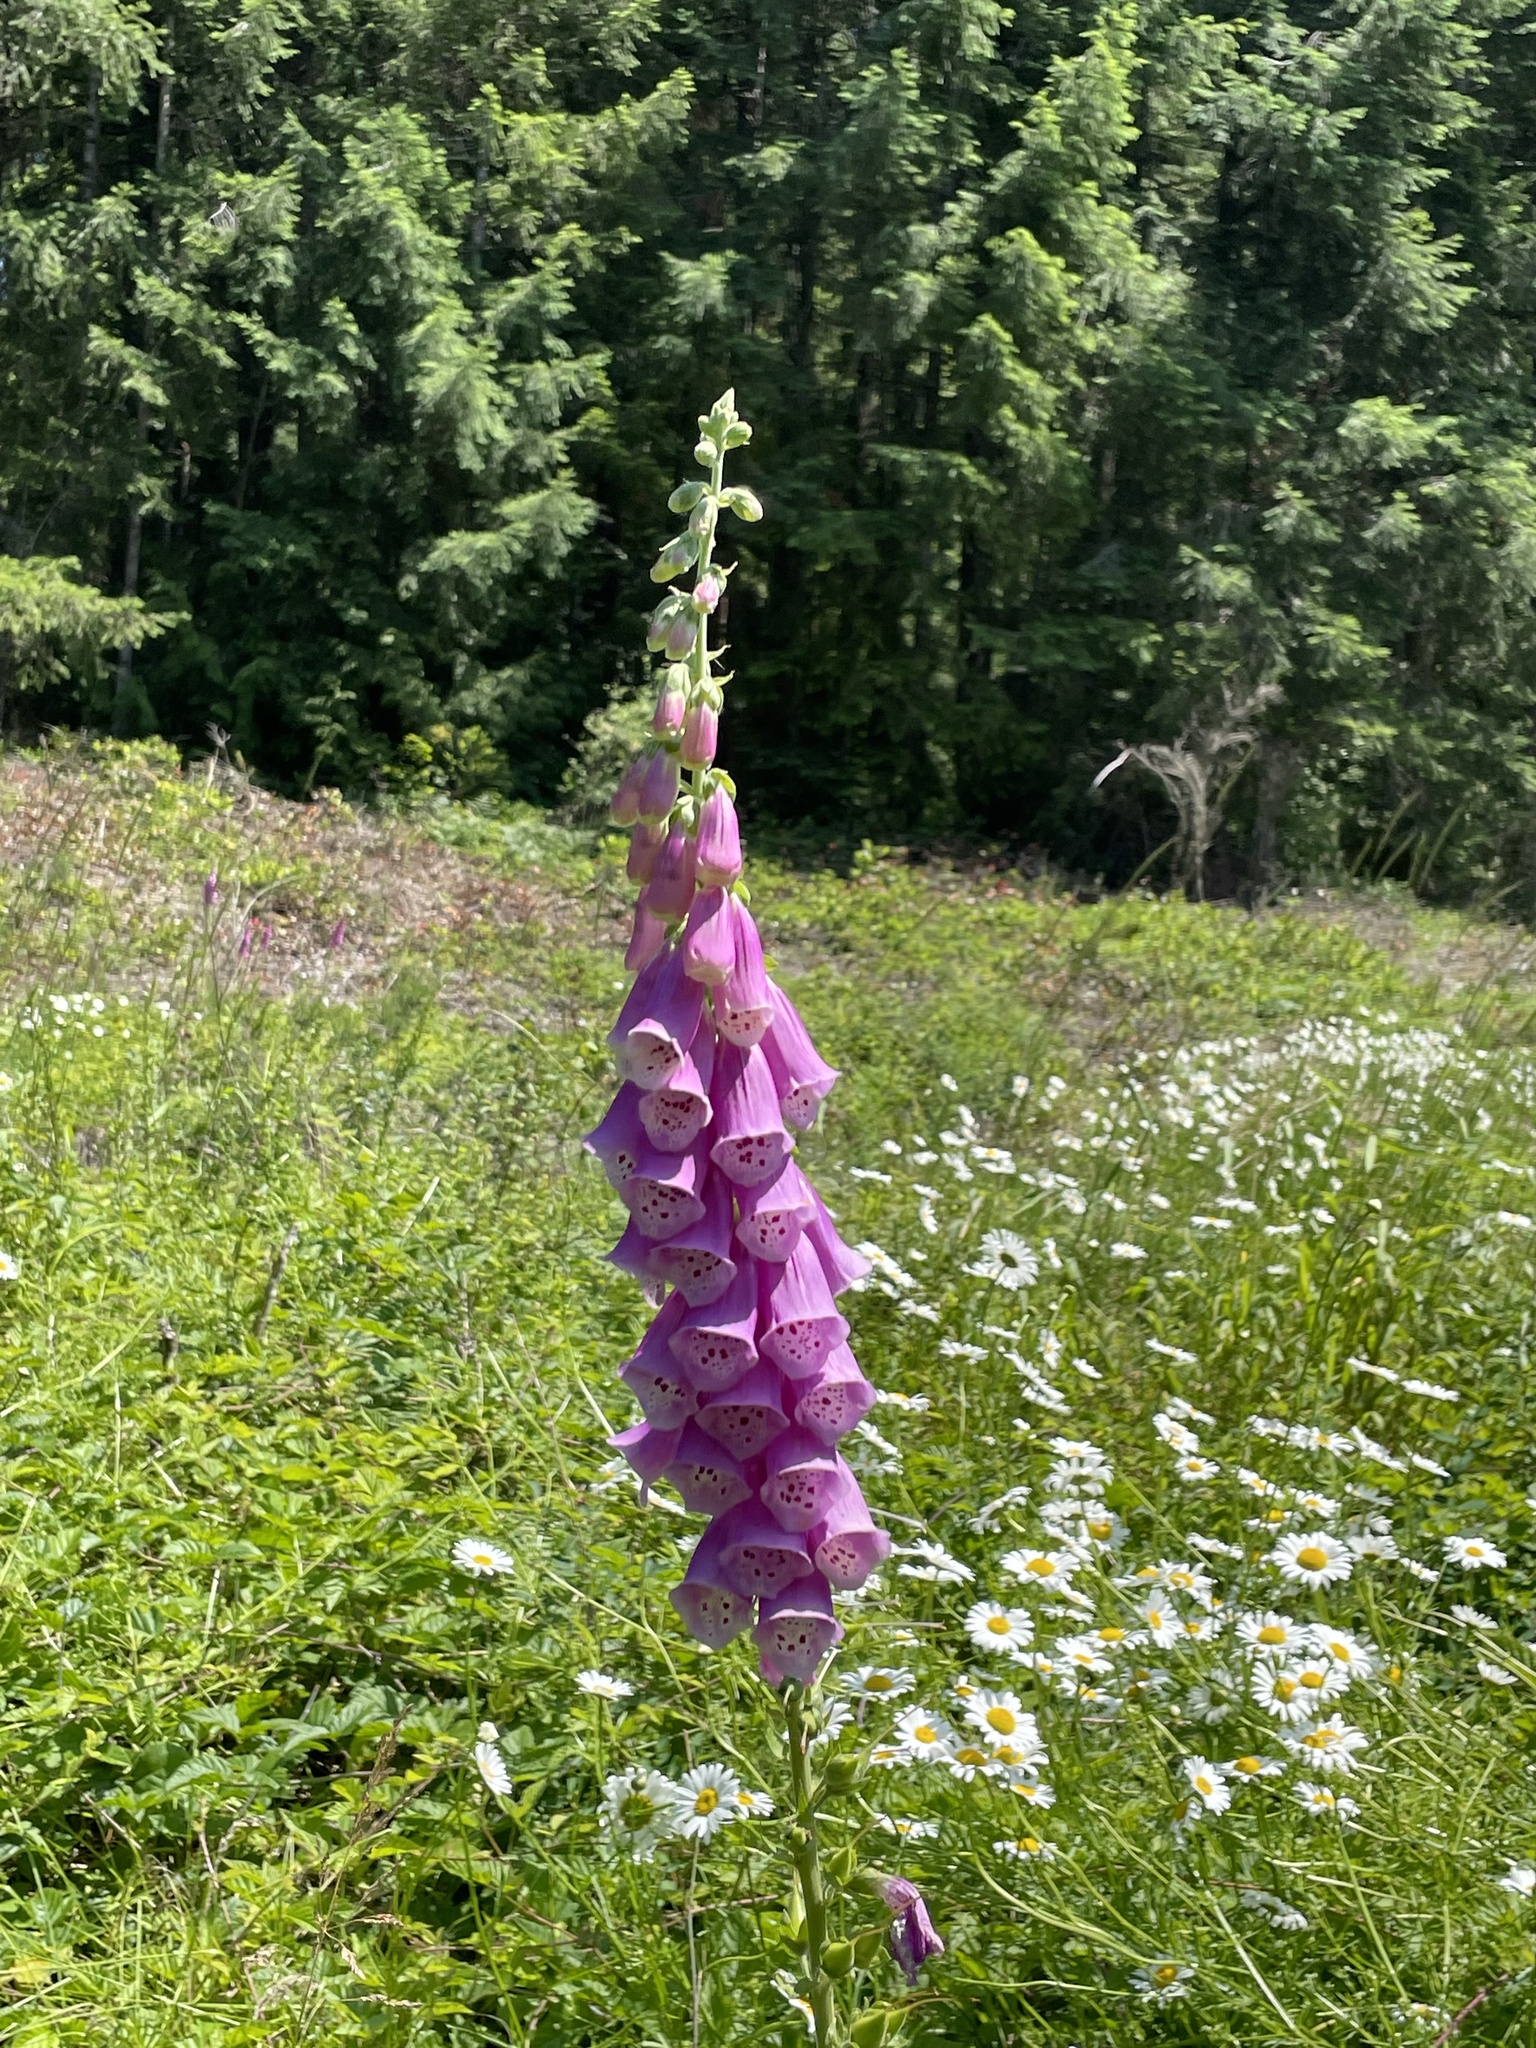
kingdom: Plantae
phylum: Tracheophyta
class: Magnoliopsida
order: Lamiales
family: Plantaginaceae
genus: Digitalis
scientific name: Digitalis purpurea
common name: Foxglove
